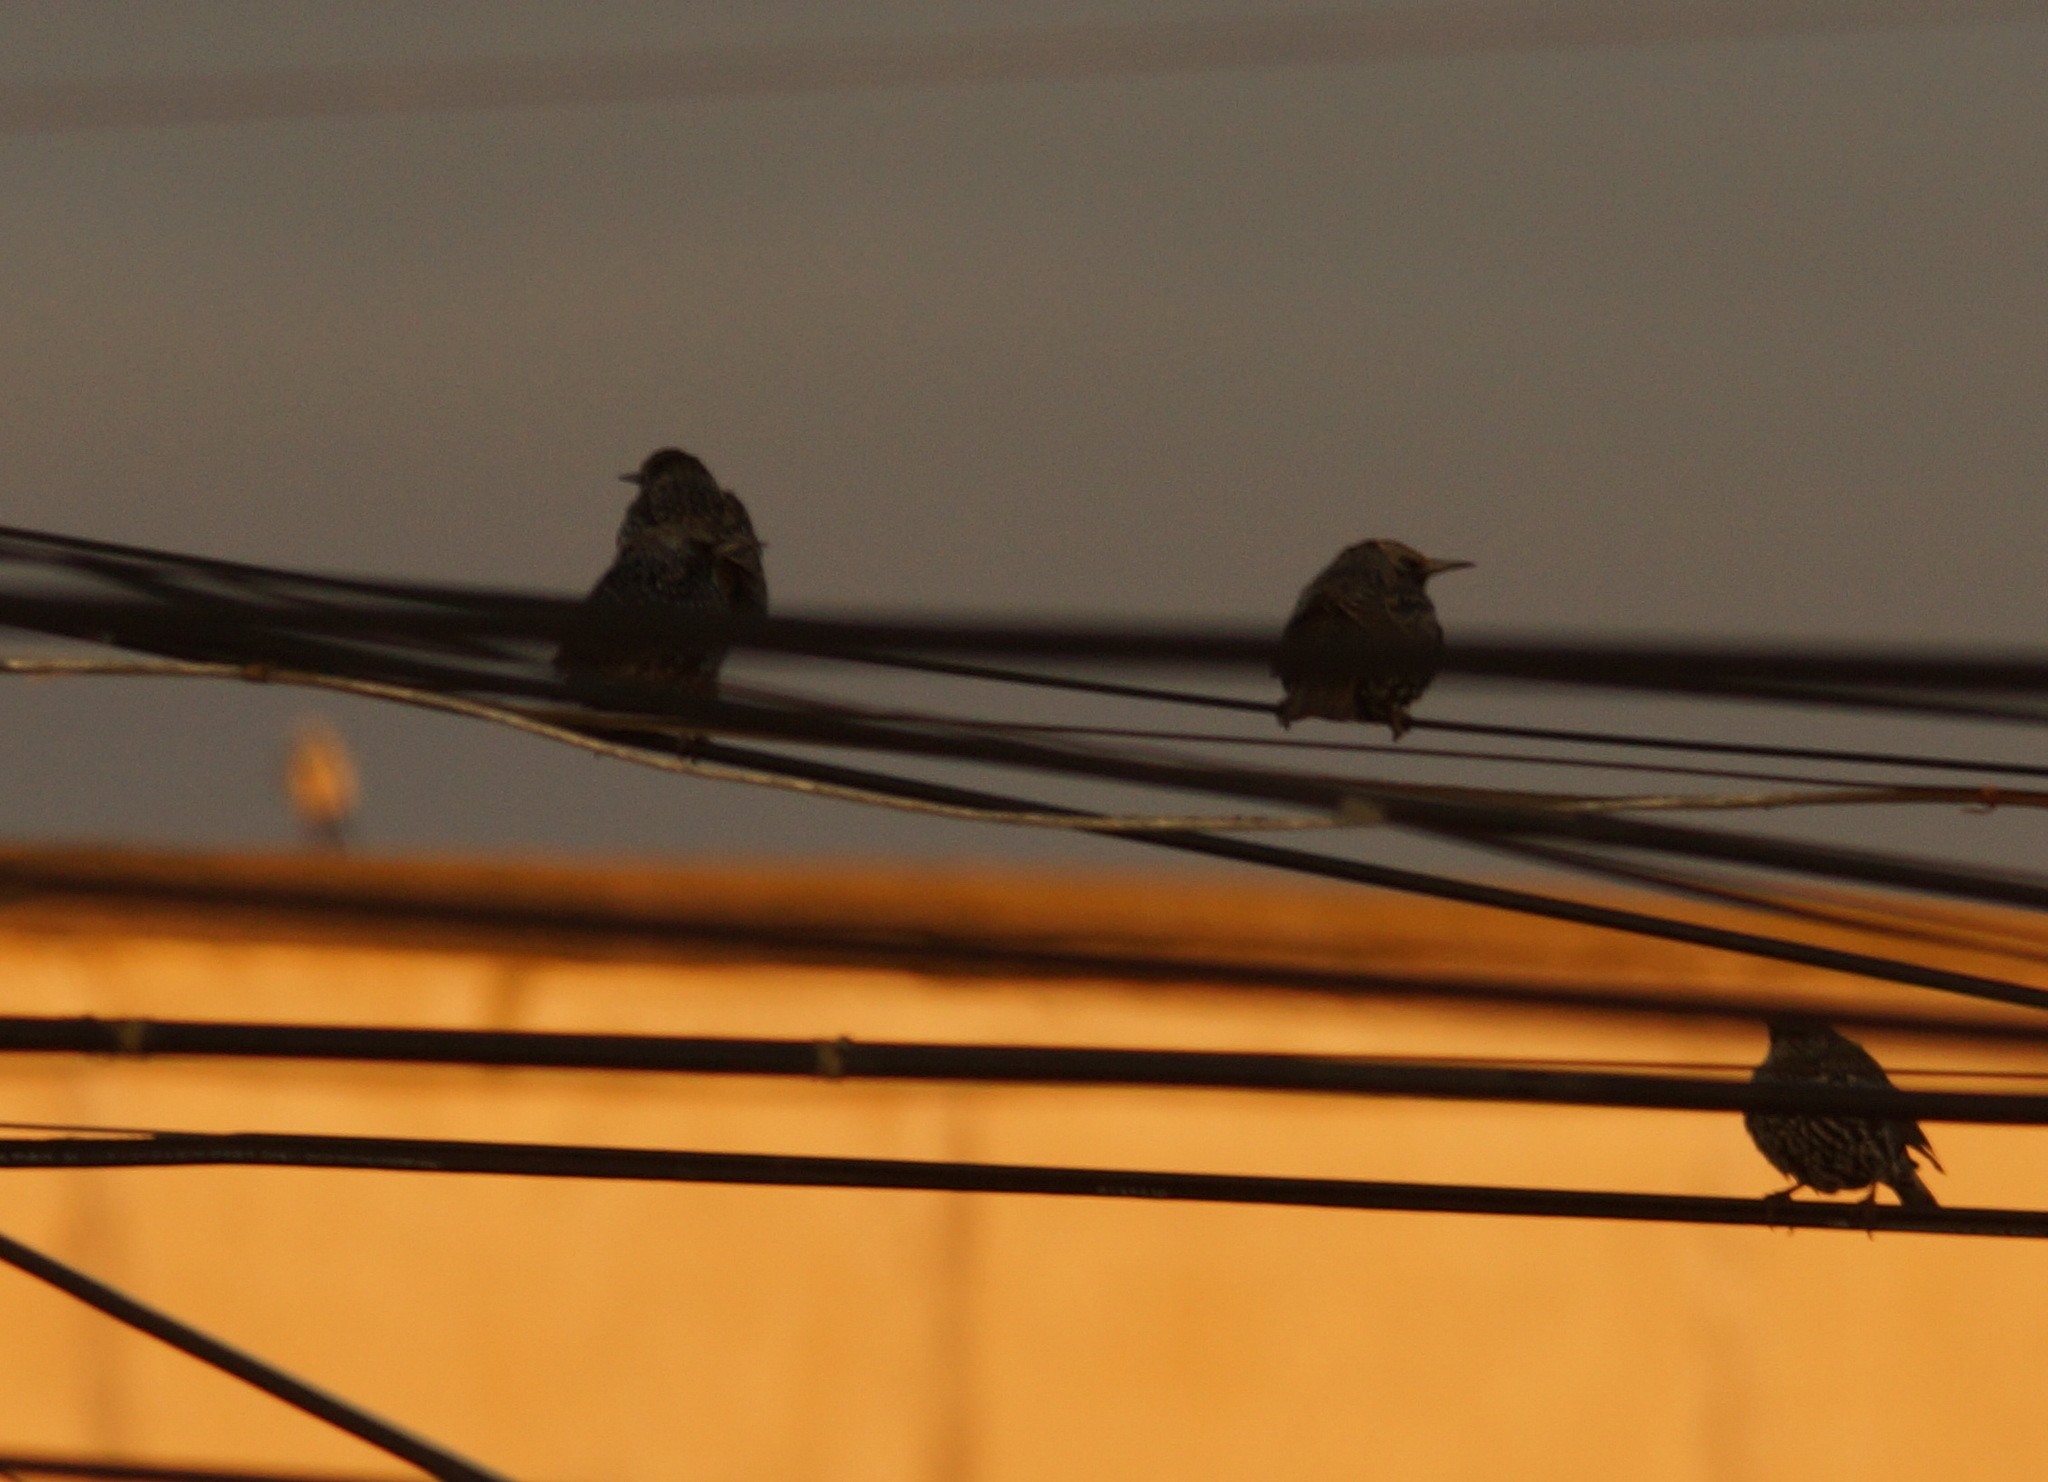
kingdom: Animalia
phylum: Chordata
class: Aves
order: Passeriformes
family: Sturnidae
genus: Sturnus
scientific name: Sturnus vulgaris
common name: Common starling
